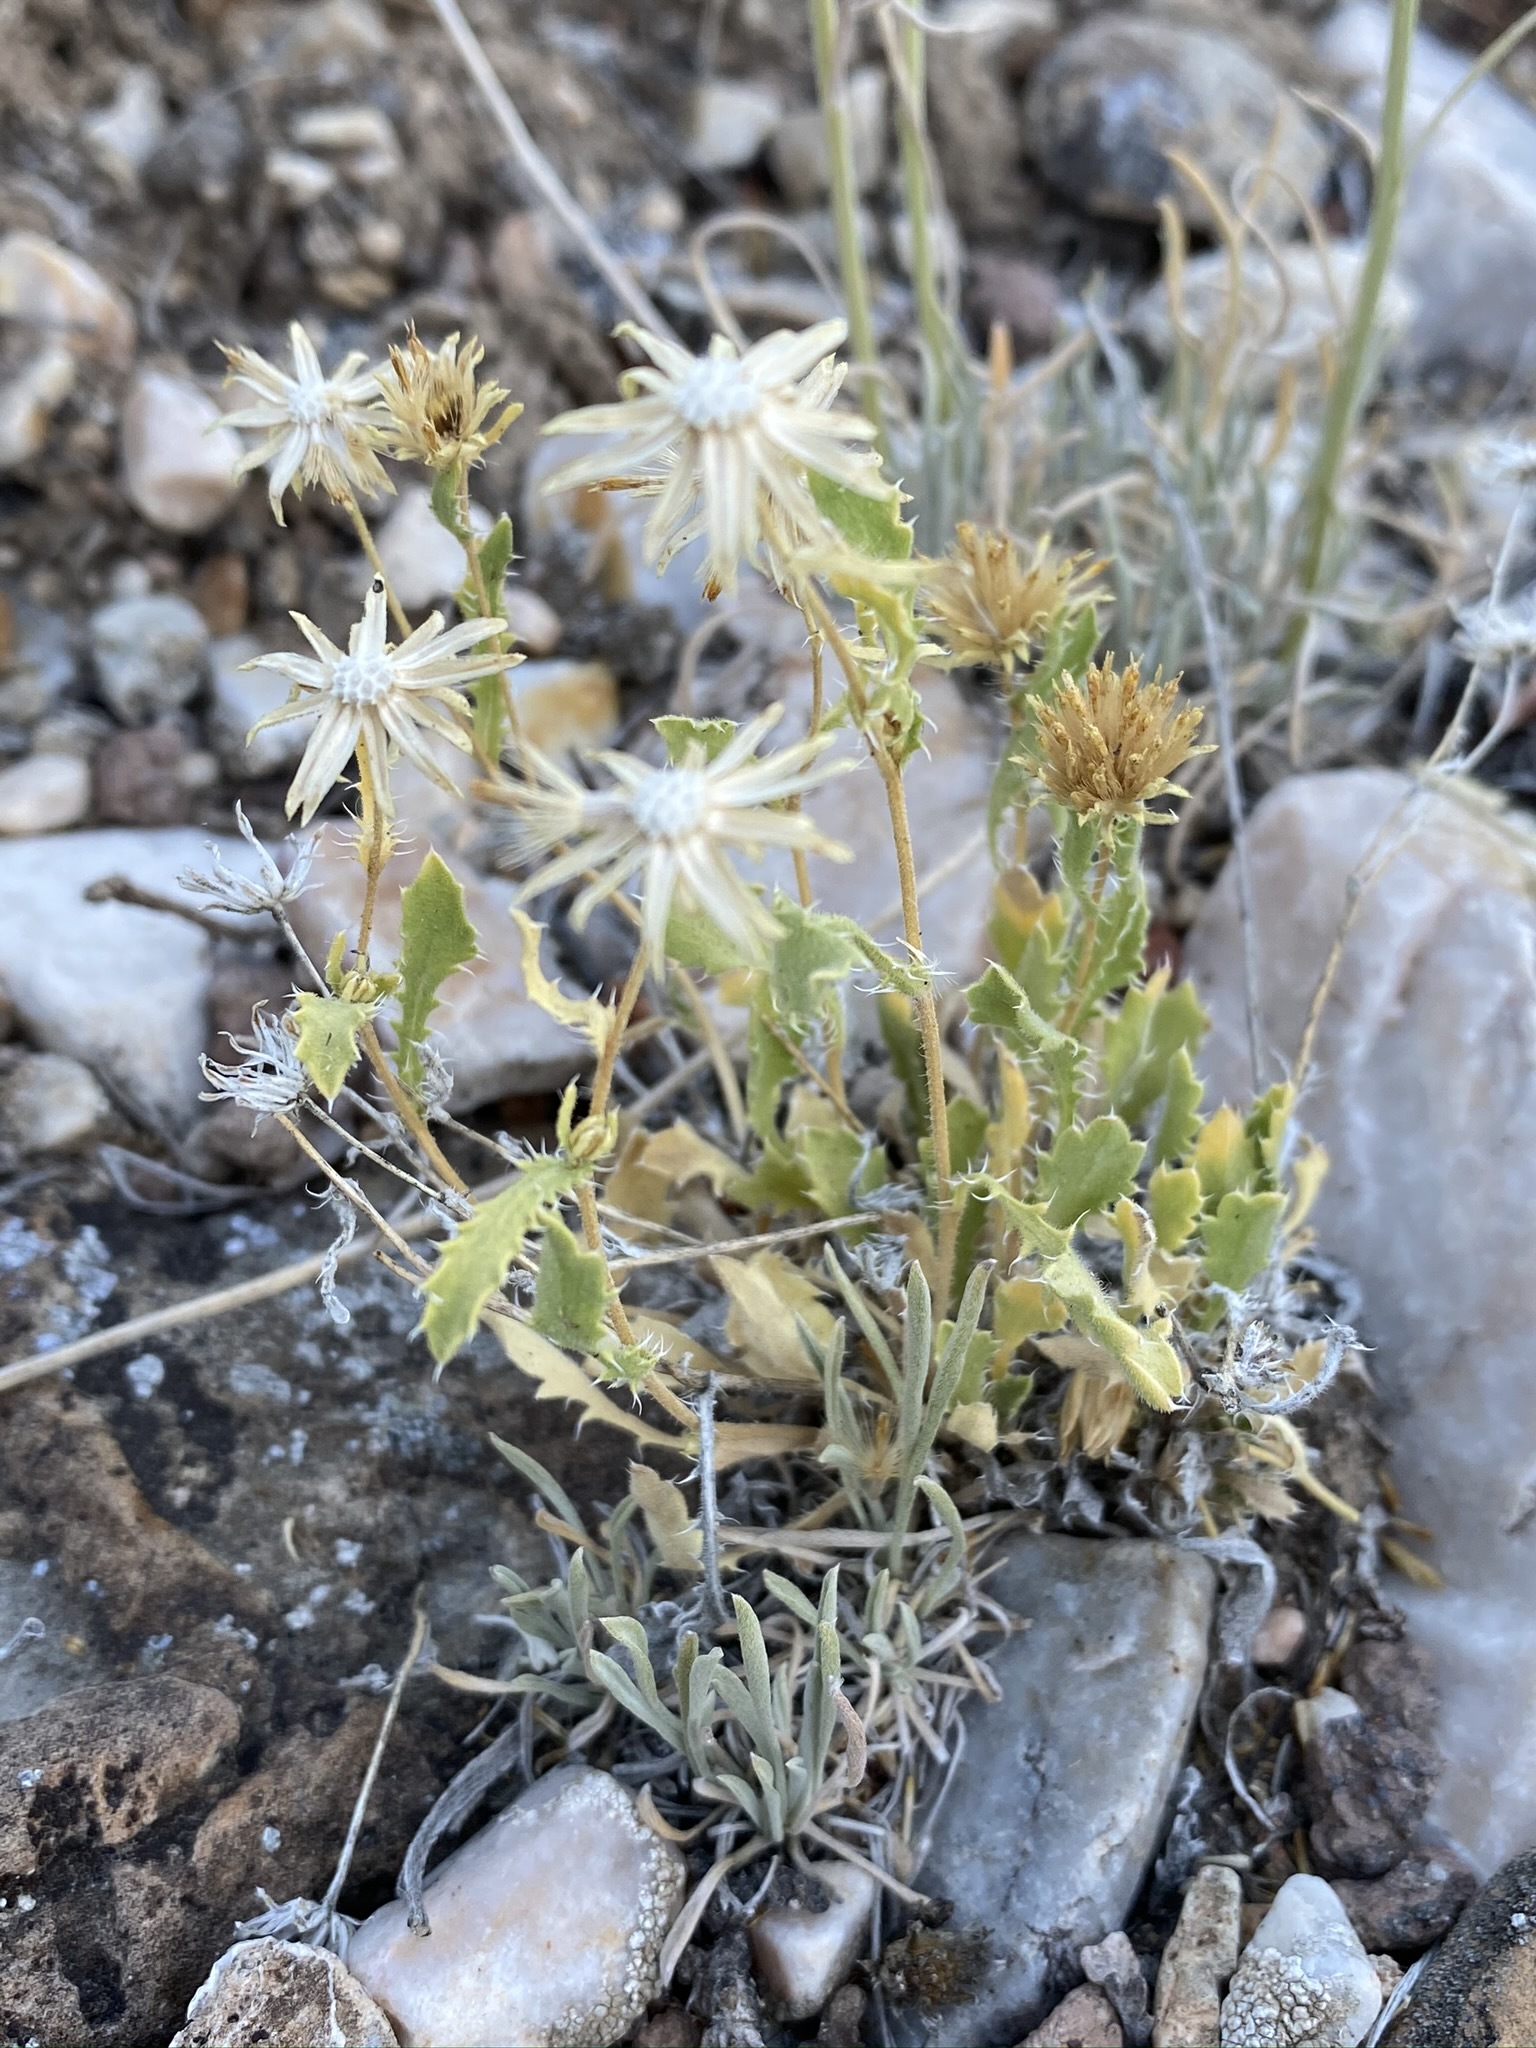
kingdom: Plantae
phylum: Tracheophyta
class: Magnoliopsida
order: Asterales
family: Asteraceae
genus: Xanthisma
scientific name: Xanthisma grindelioides
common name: Goldenweed
